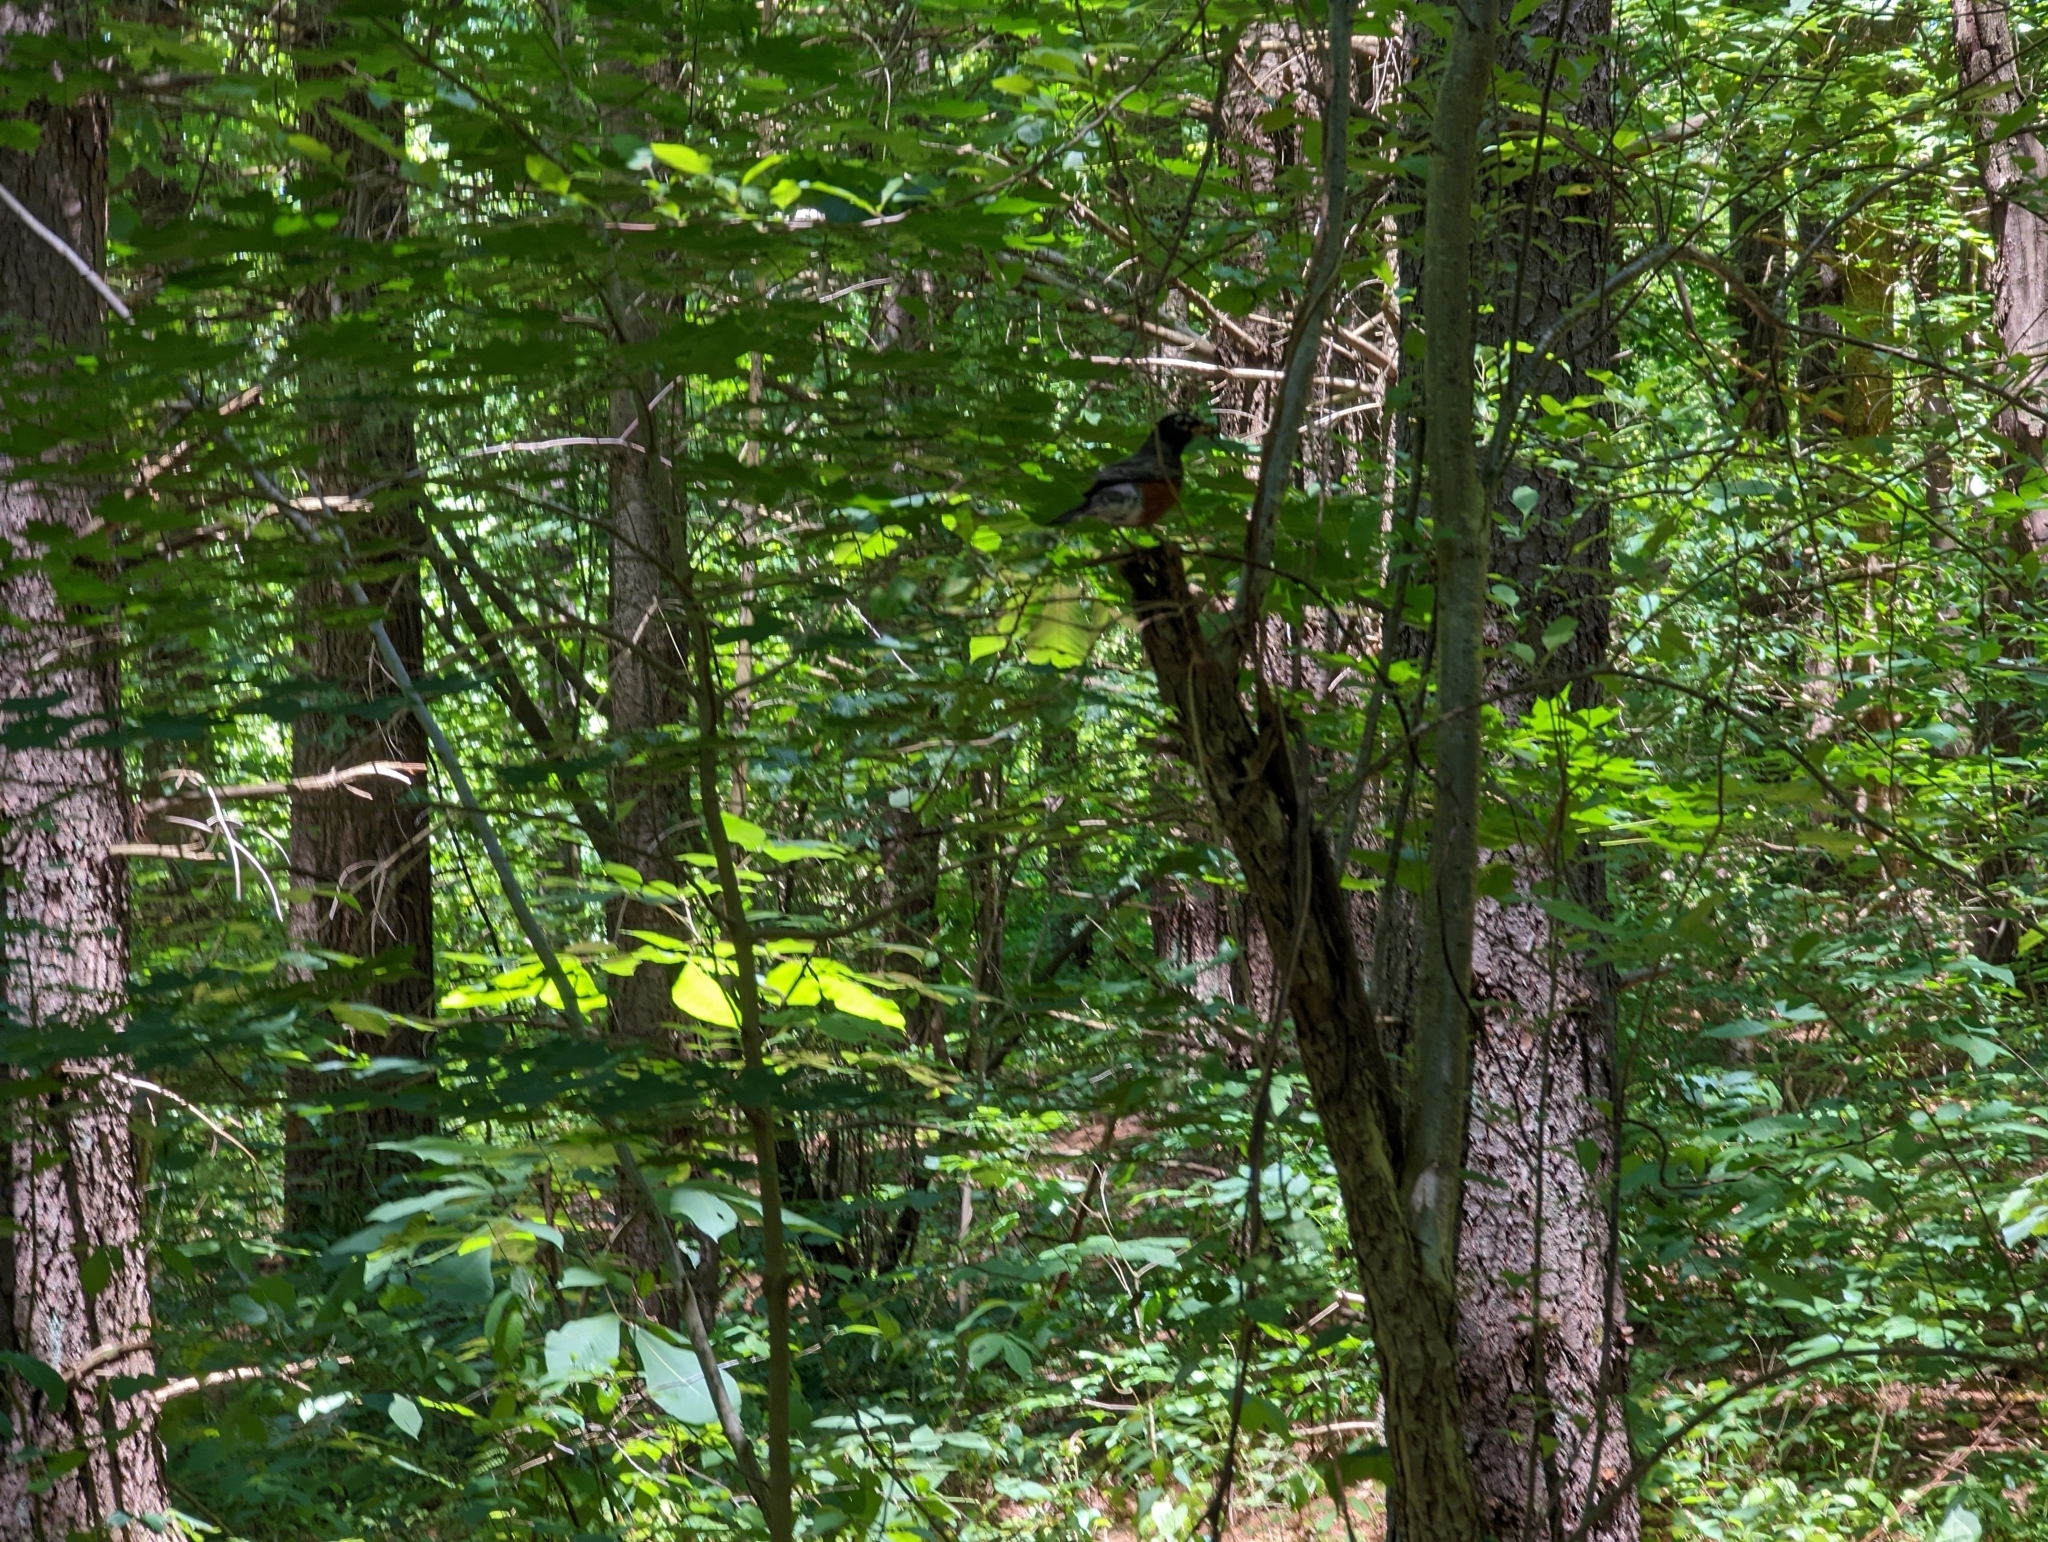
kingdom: Animalia
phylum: Chordata
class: Aves
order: Passeriformes
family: Turdidae
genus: Turdus
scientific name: Turdus migratorius
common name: American robin
